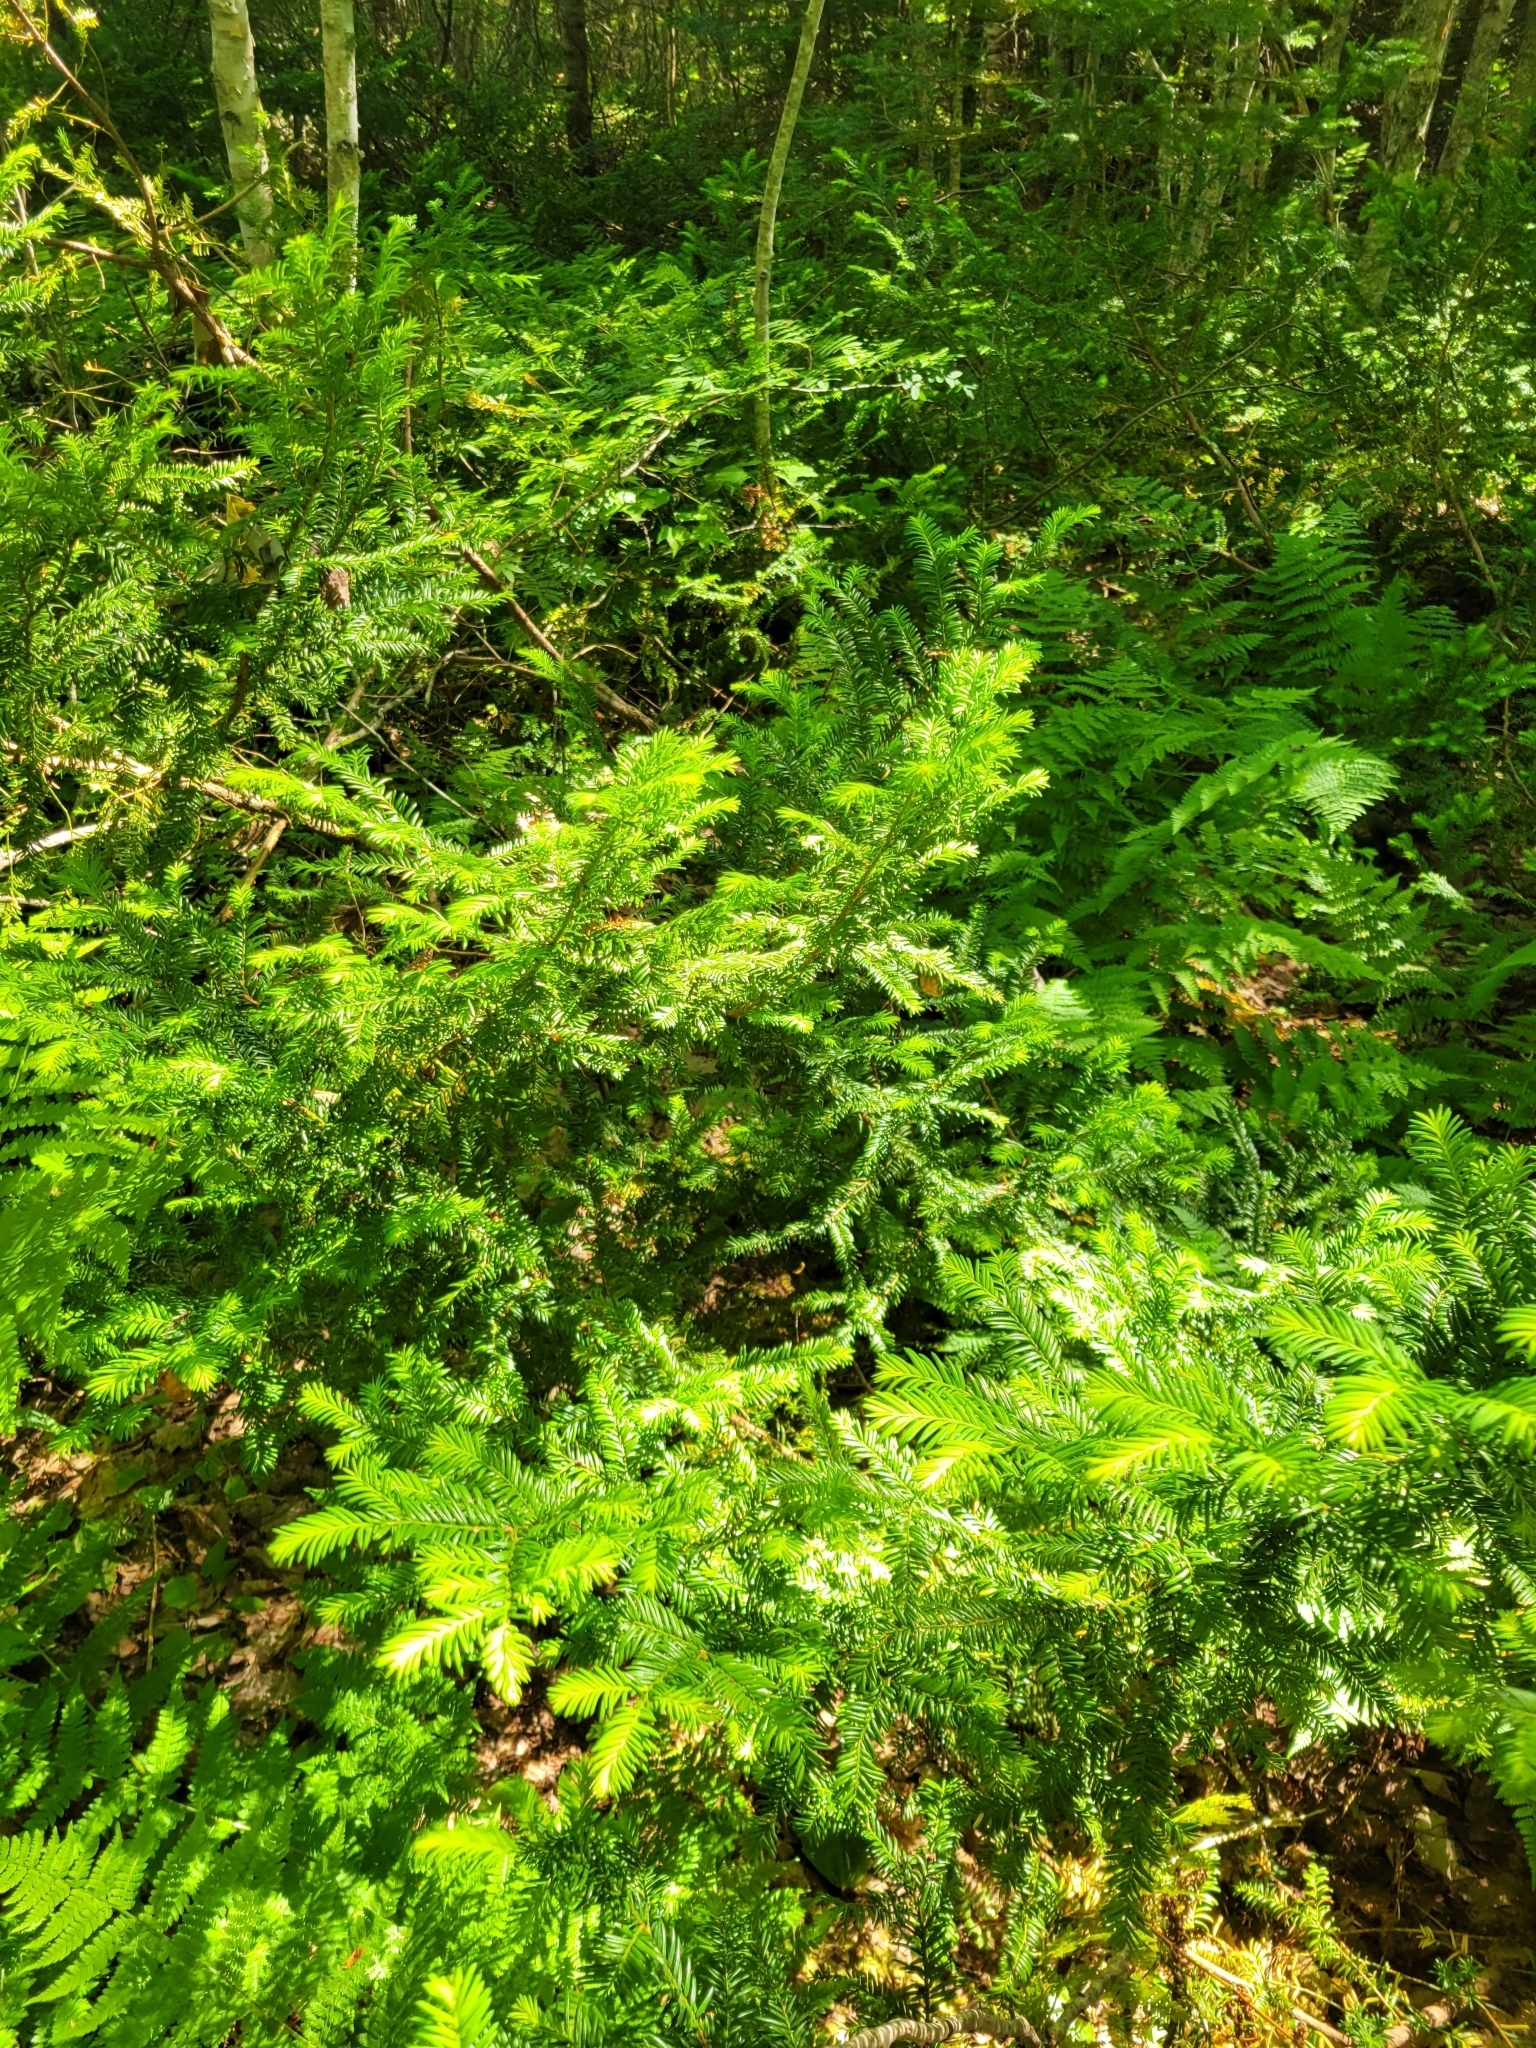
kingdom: Plantae
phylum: Tracheophyta
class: Pinopsida
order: Pinales
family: Taxaceae
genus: Taxus
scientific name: Taxus canadensis
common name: American yew
